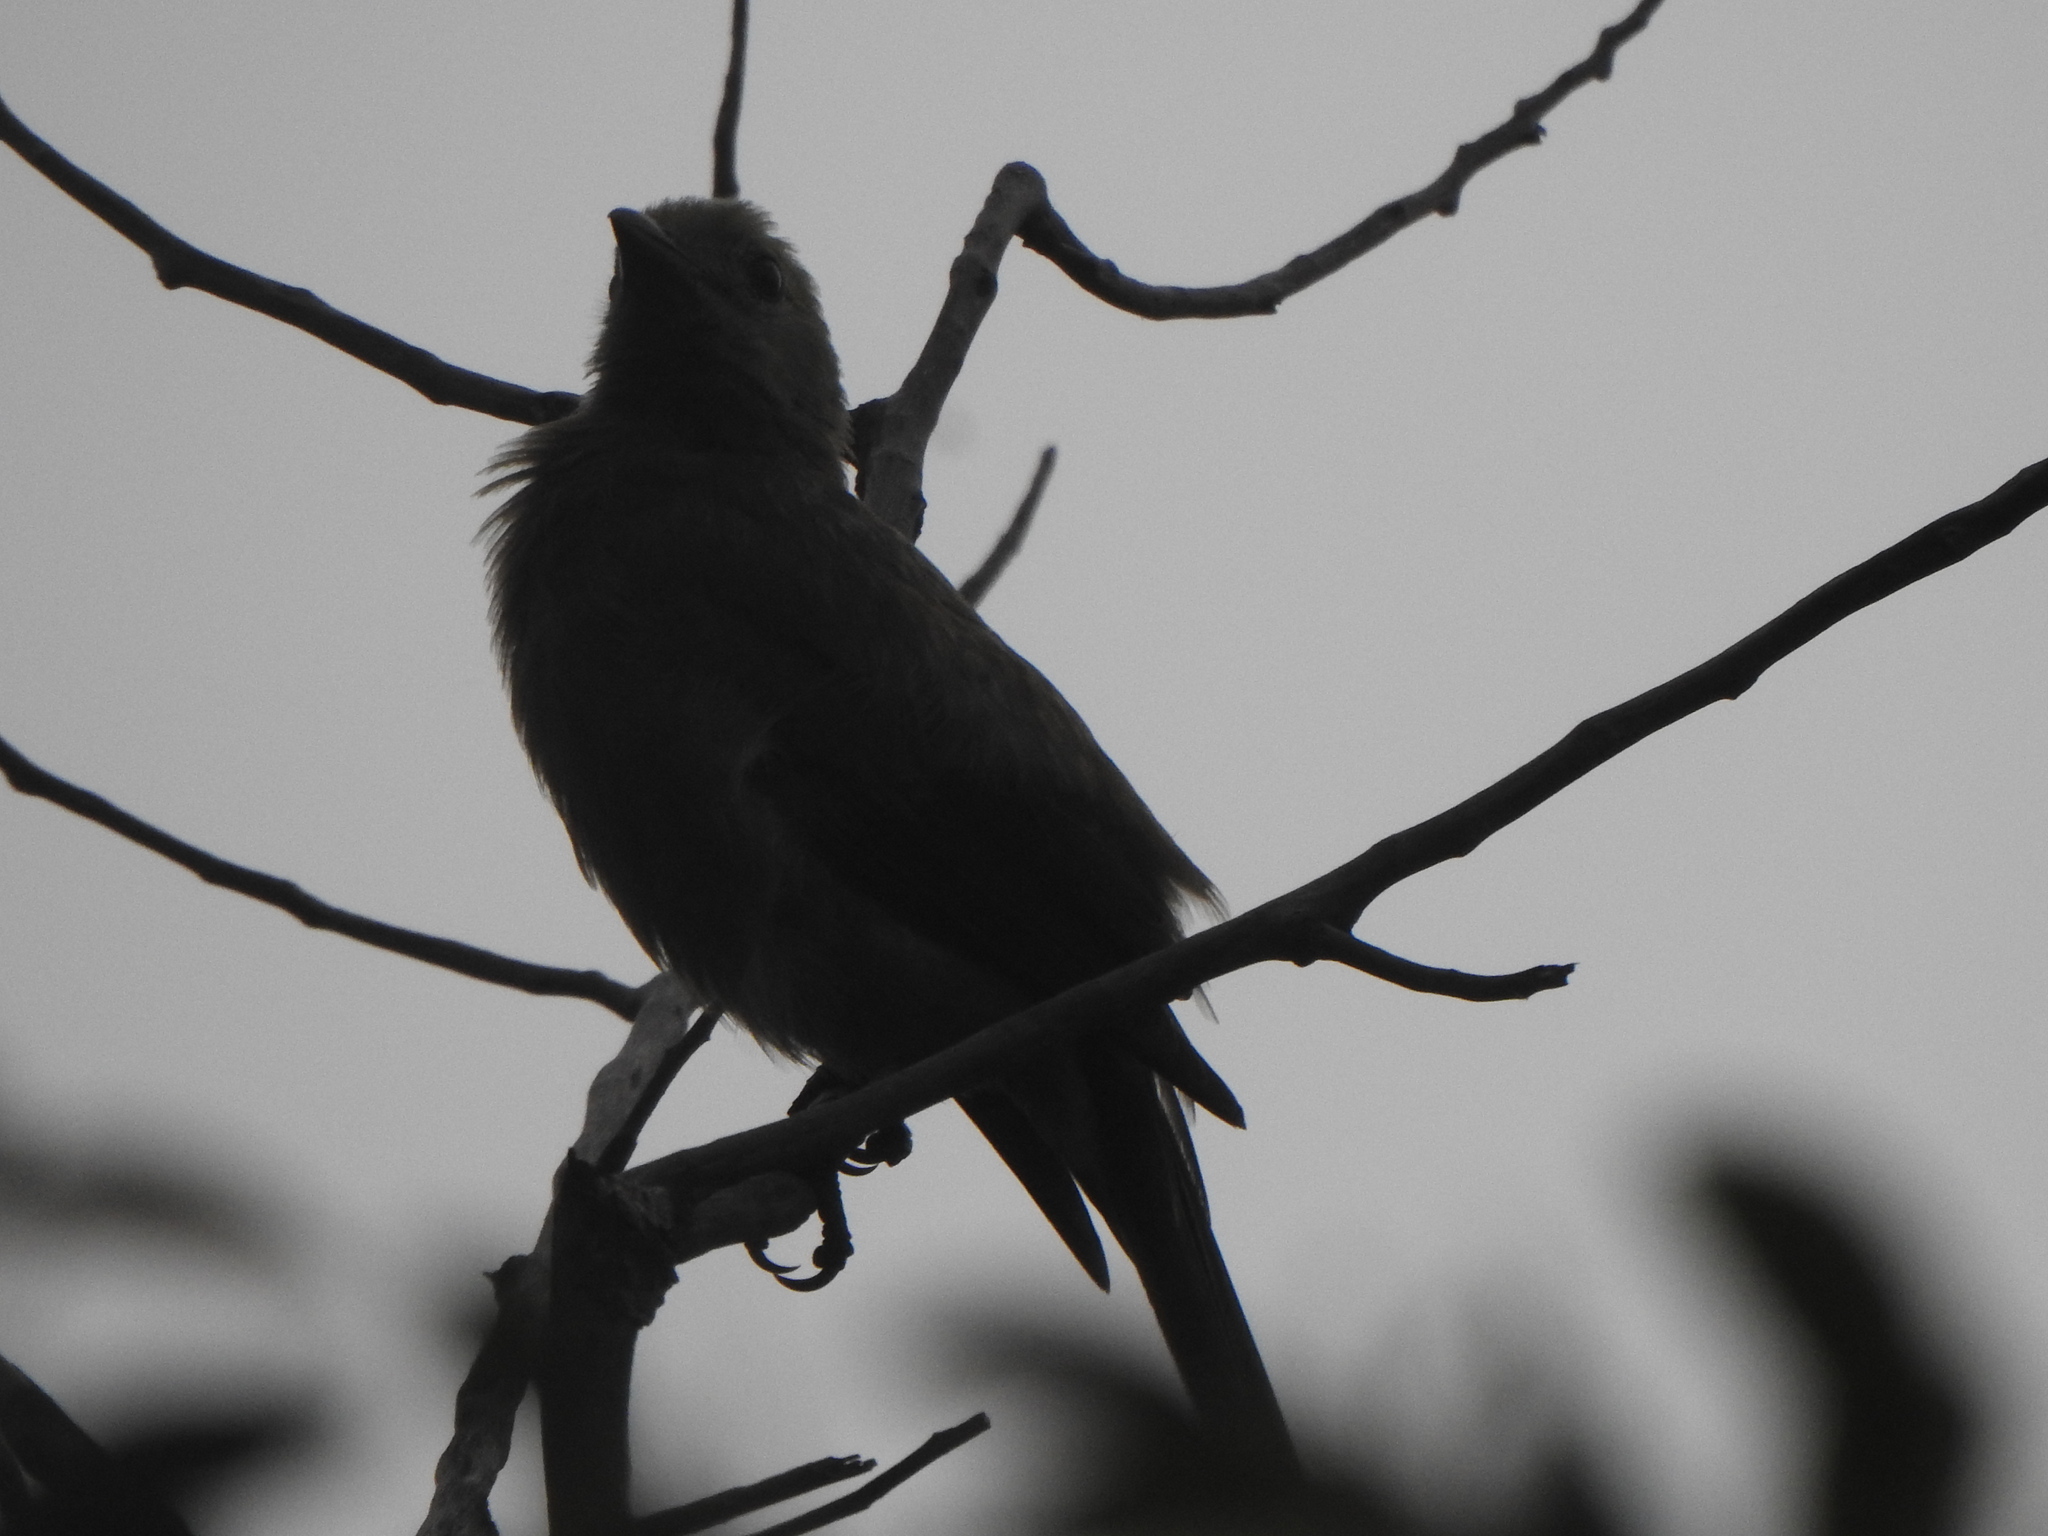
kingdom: Animalia
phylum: Chordata
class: Aves
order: Passeriformes
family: Thraupidae
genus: Thraupis
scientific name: Thraupis palmarum
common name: Palm tanager
